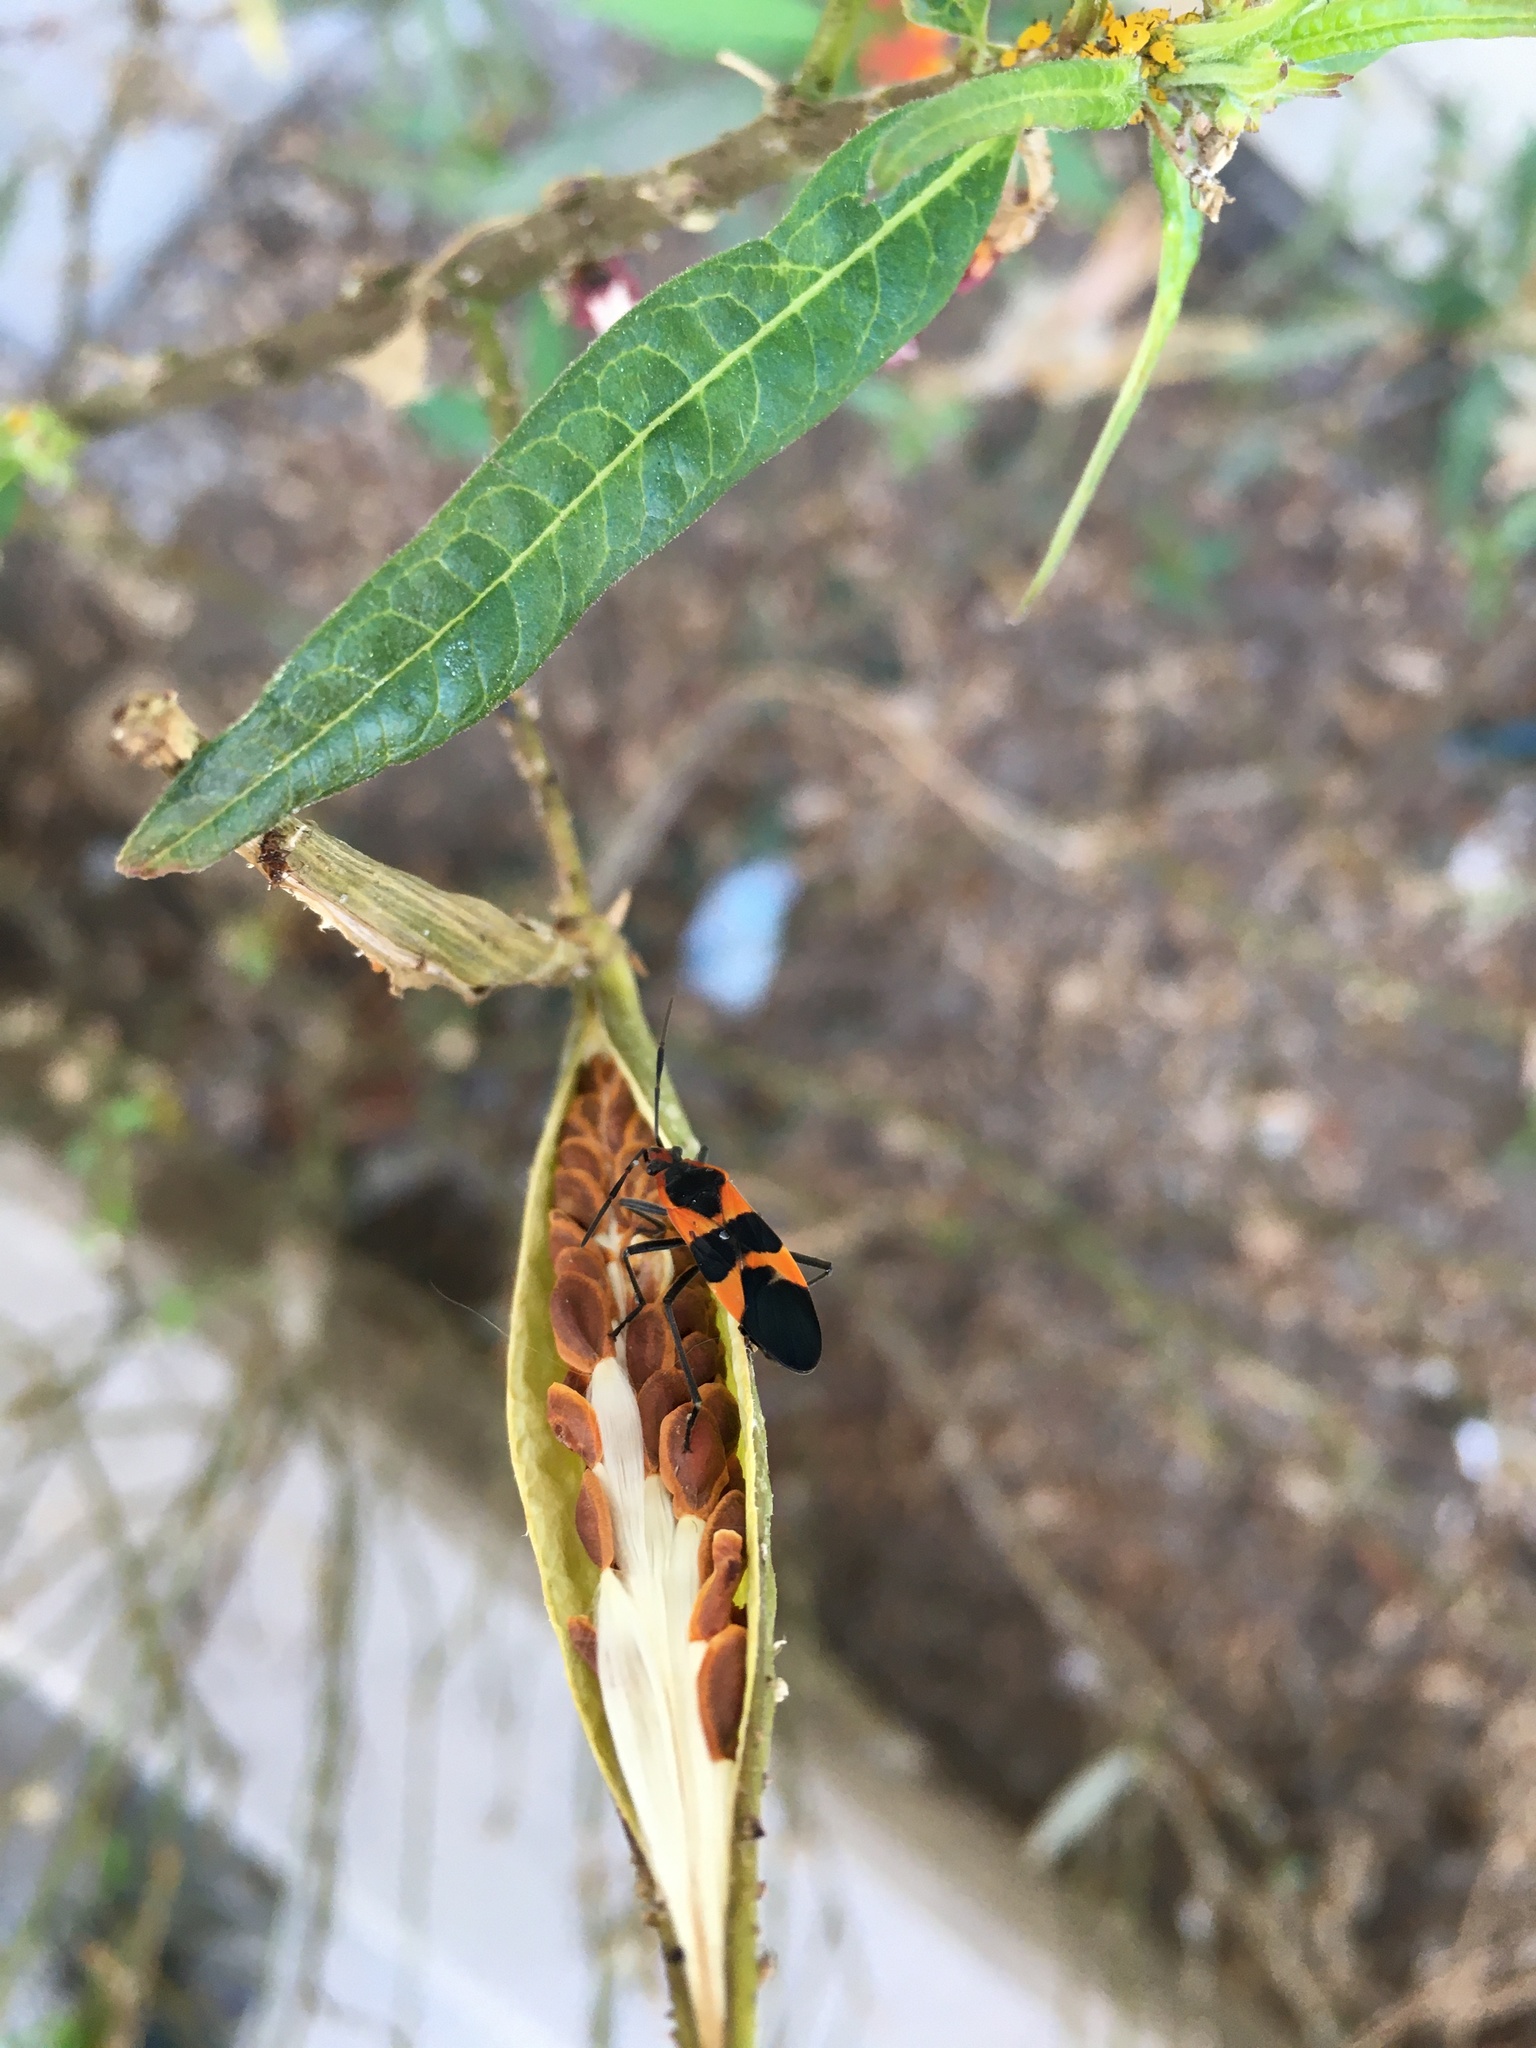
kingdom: Animalia
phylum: Arthropoda
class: Insecta
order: Hemiptera
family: Lygaeidae
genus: Oncopeltus
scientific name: Oncopeltus fasciatus
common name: Large milkweed bug
